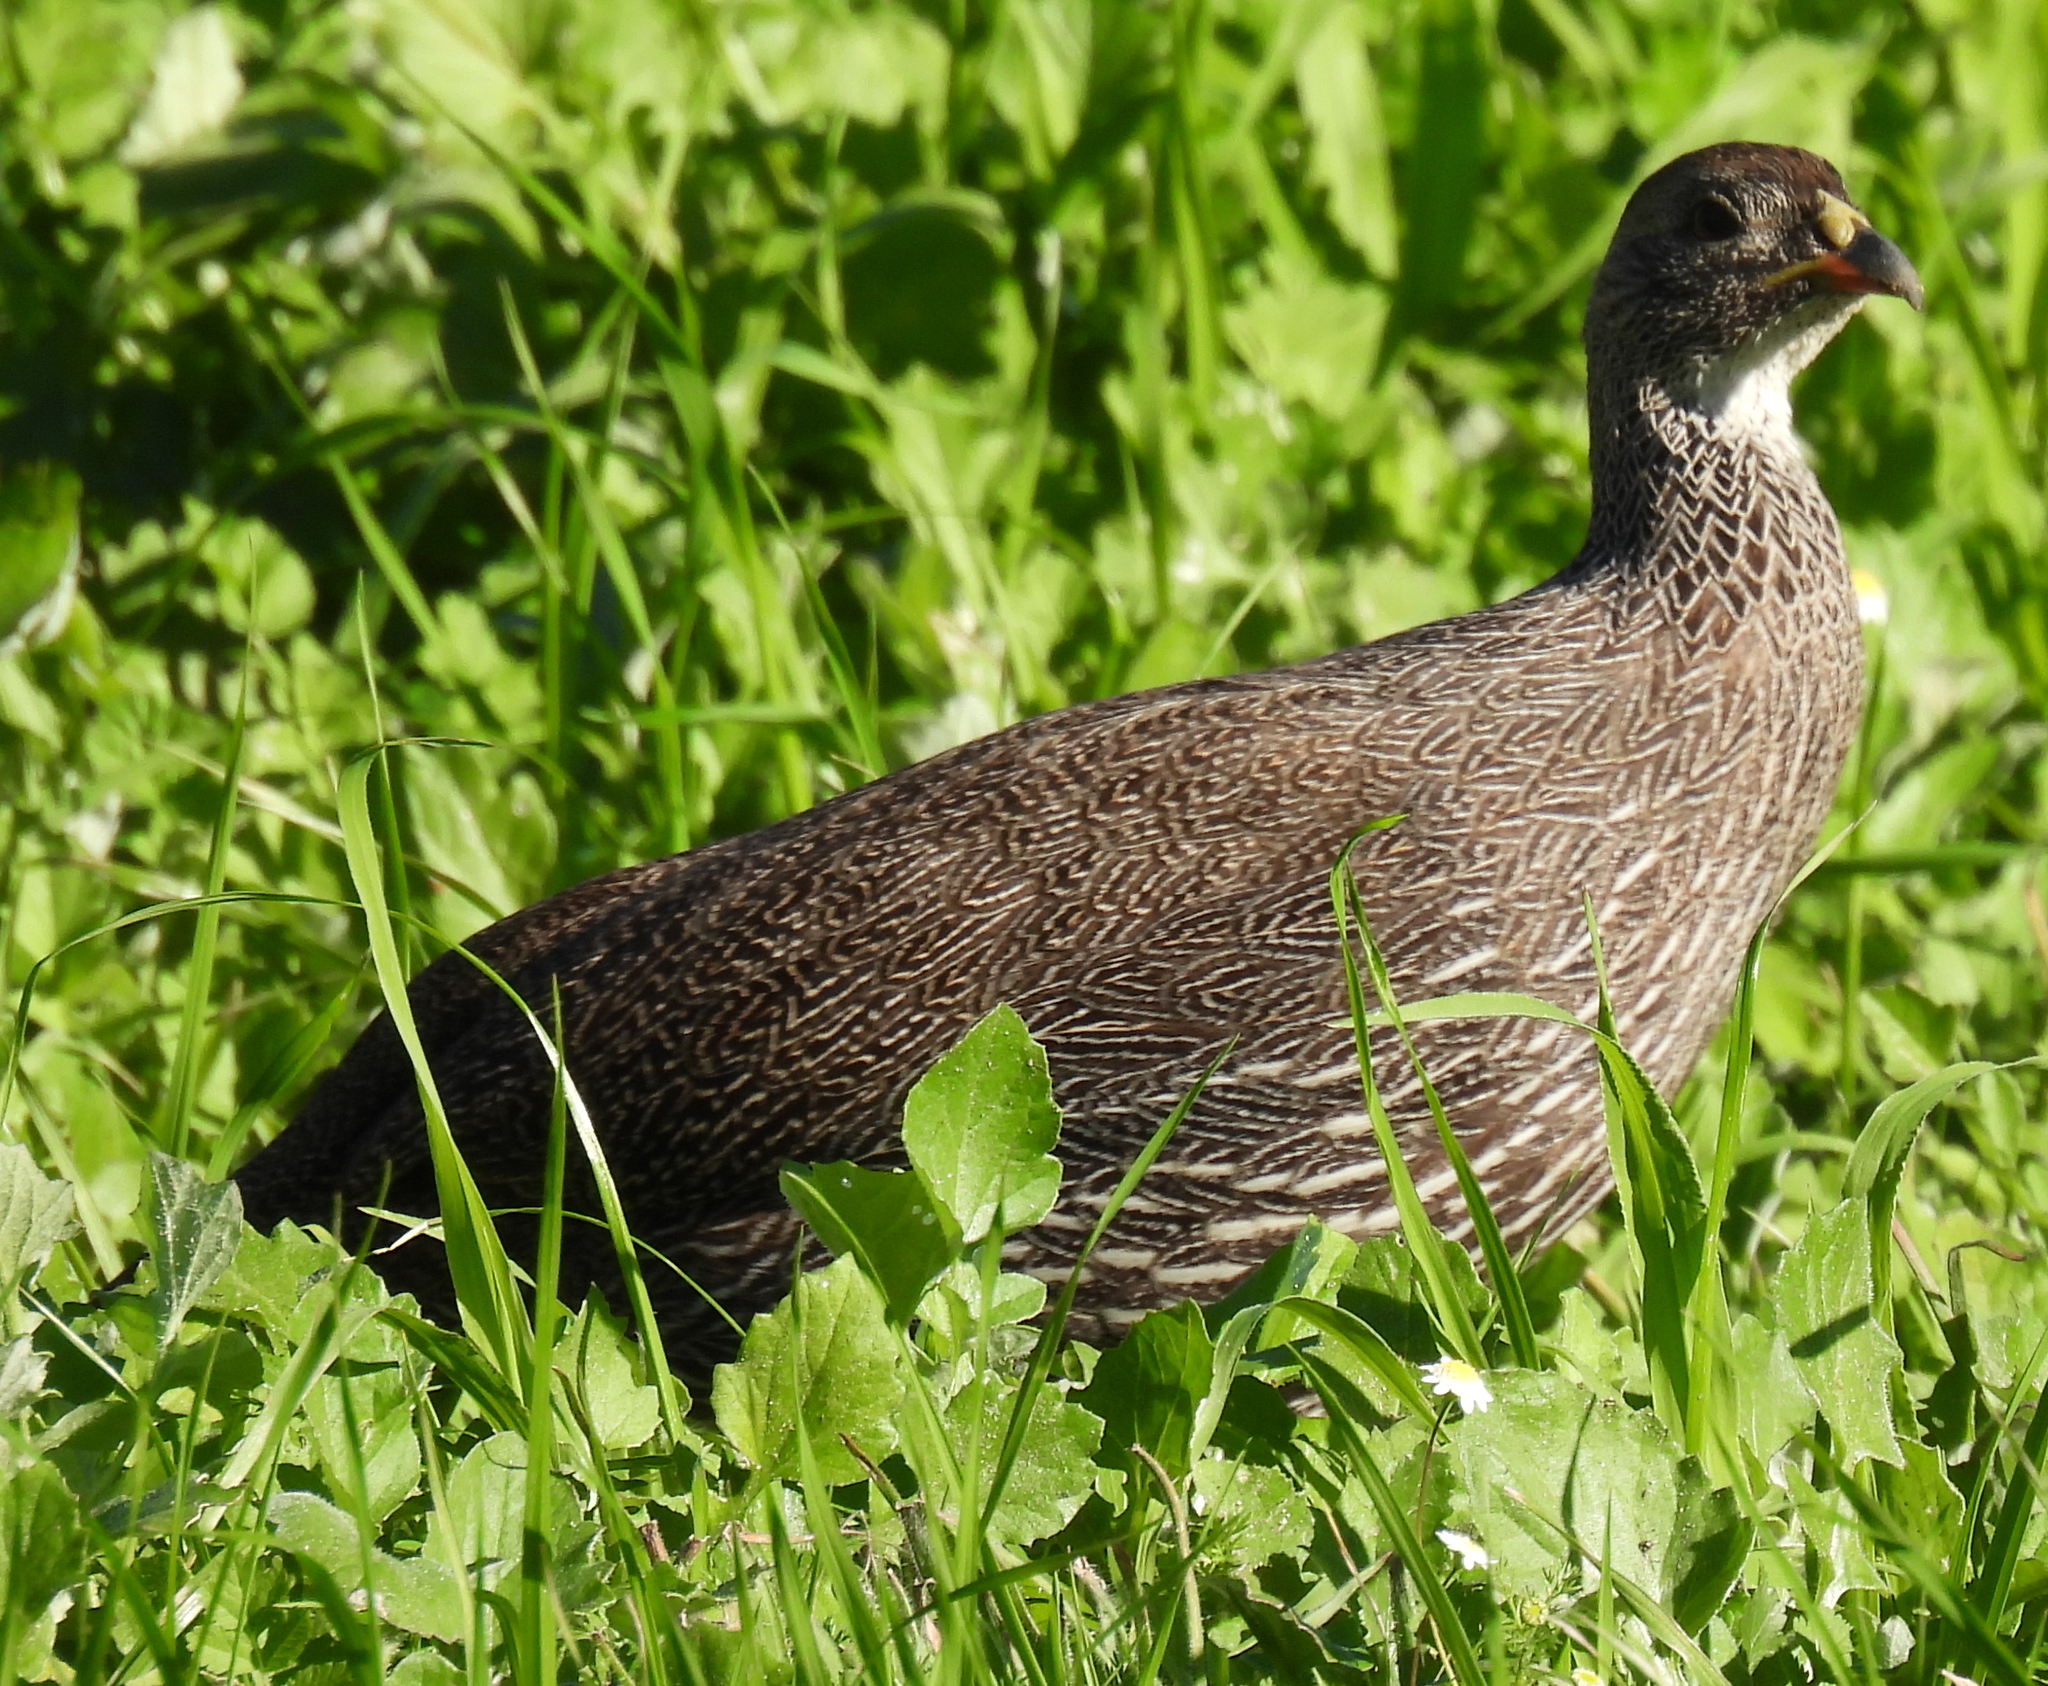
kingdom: Animalia
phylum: Chordata
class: Aves
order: Galliformes
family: Phasianidae
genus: Pternistis
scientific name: Pternistis capensis
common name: Cape spurfowl
